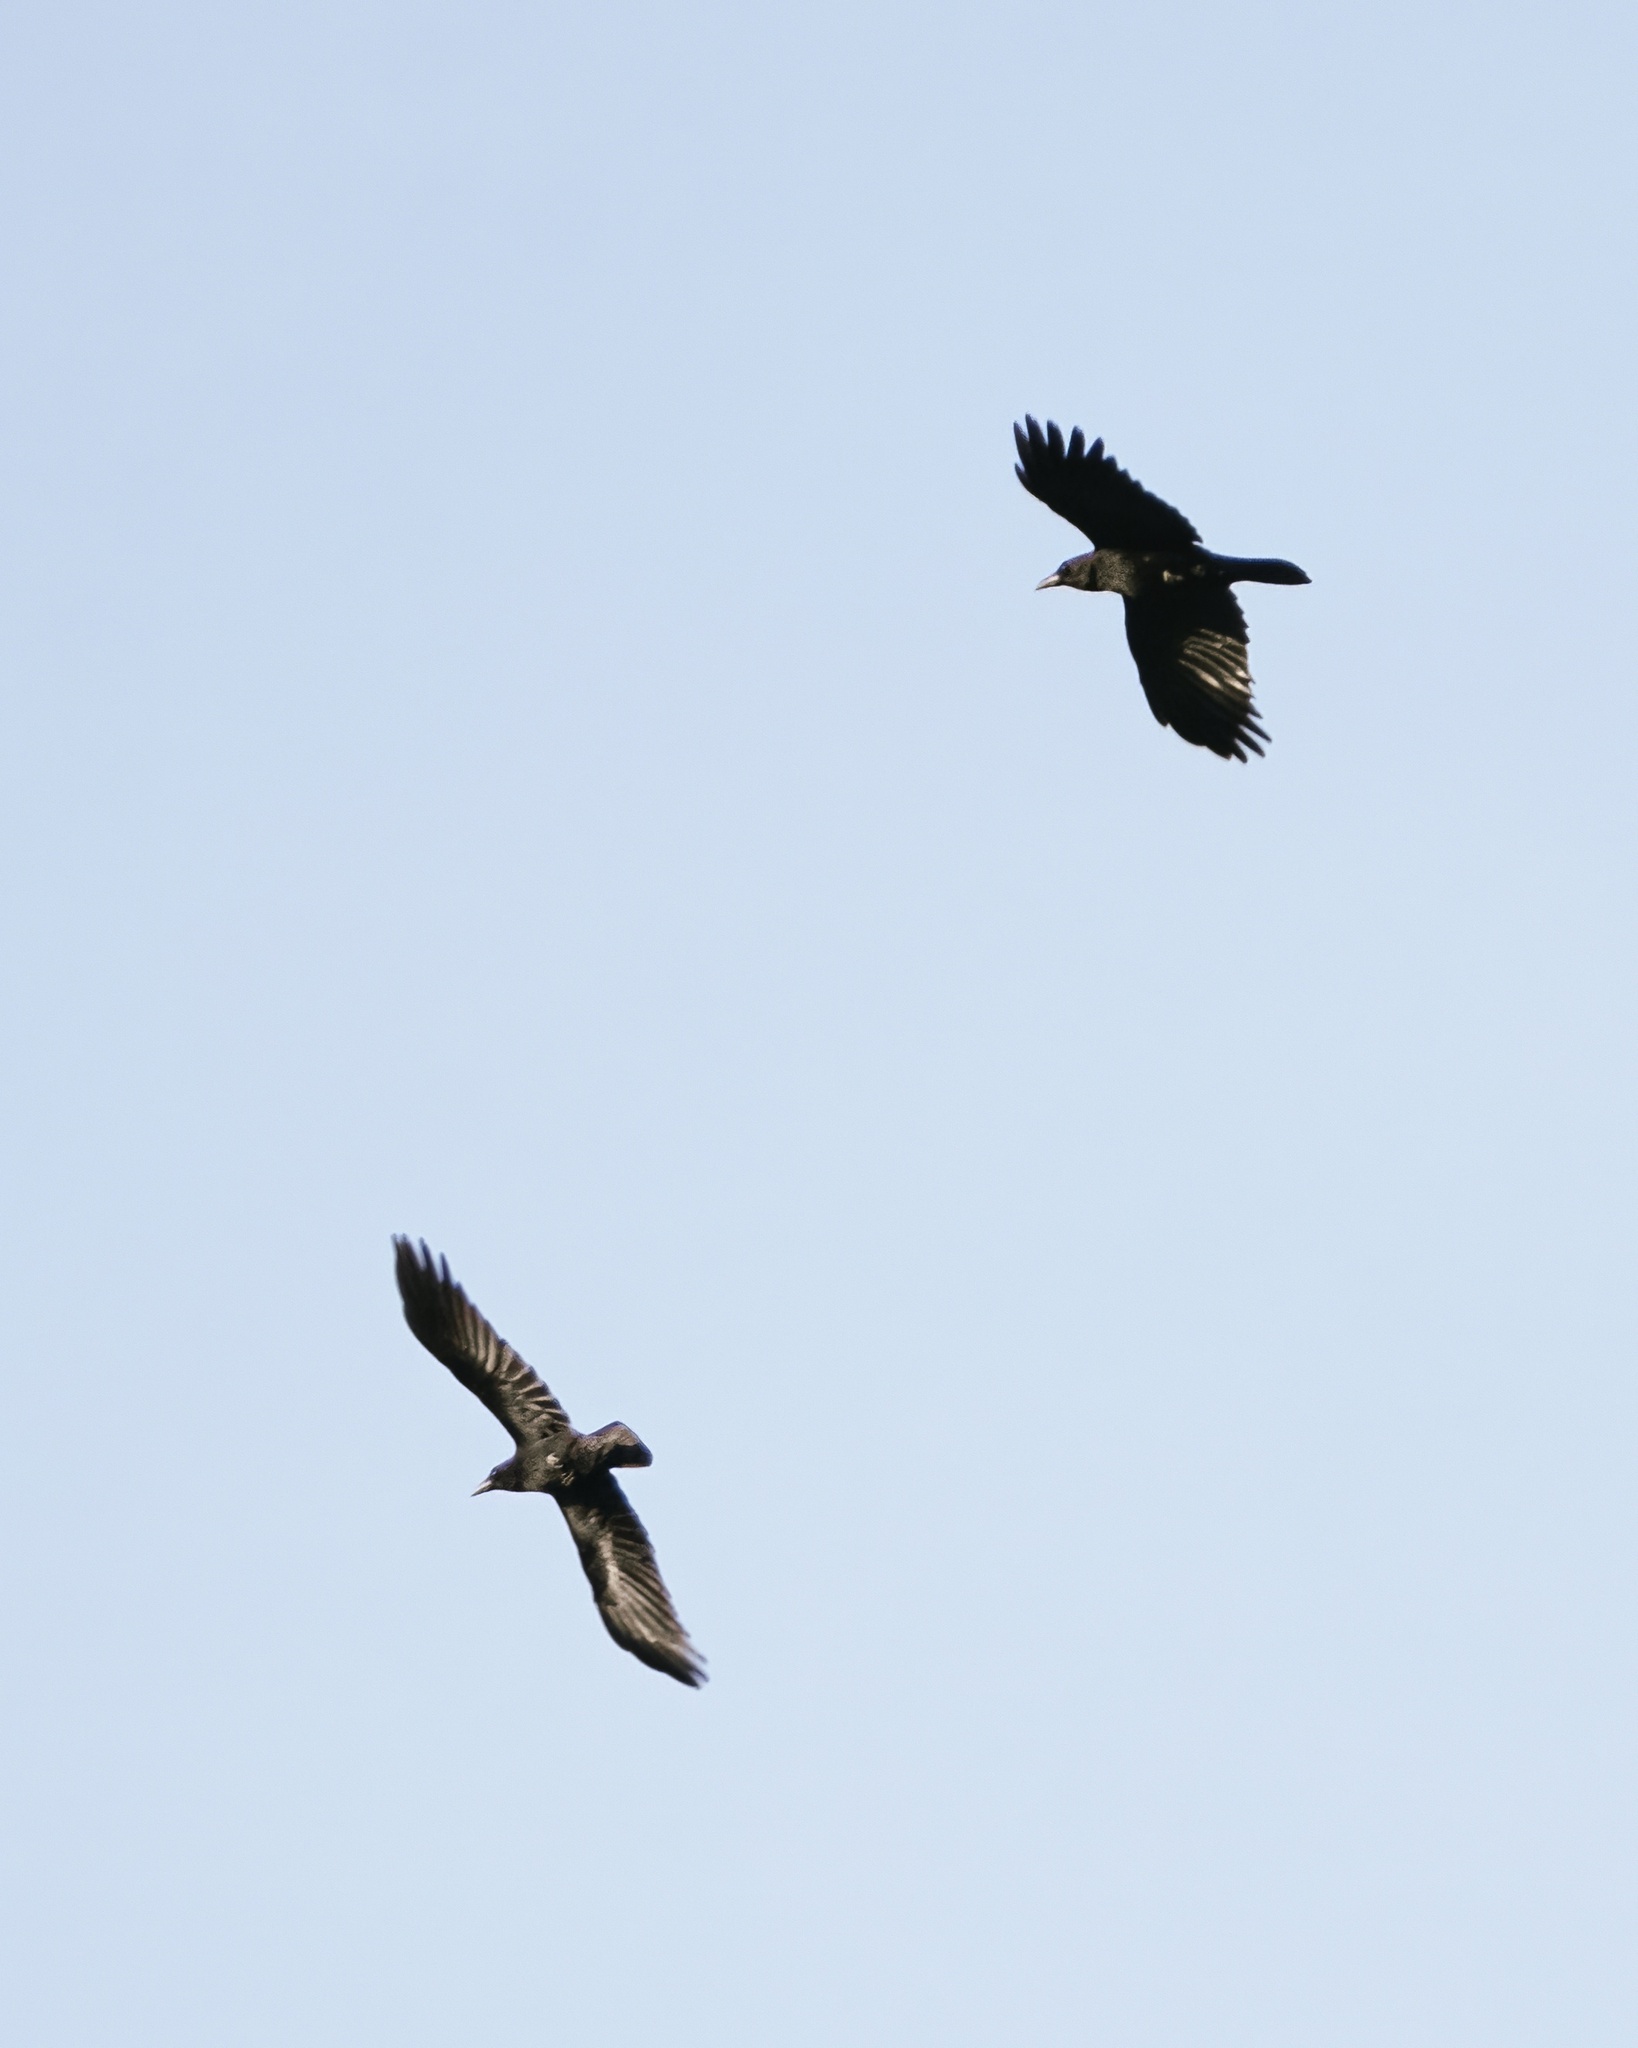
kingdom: Animalia
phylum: Chordata
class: Aves
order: Passeriformes
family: Corvidae
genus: Corvus
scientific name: Corvus corone
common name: Carrion crow
